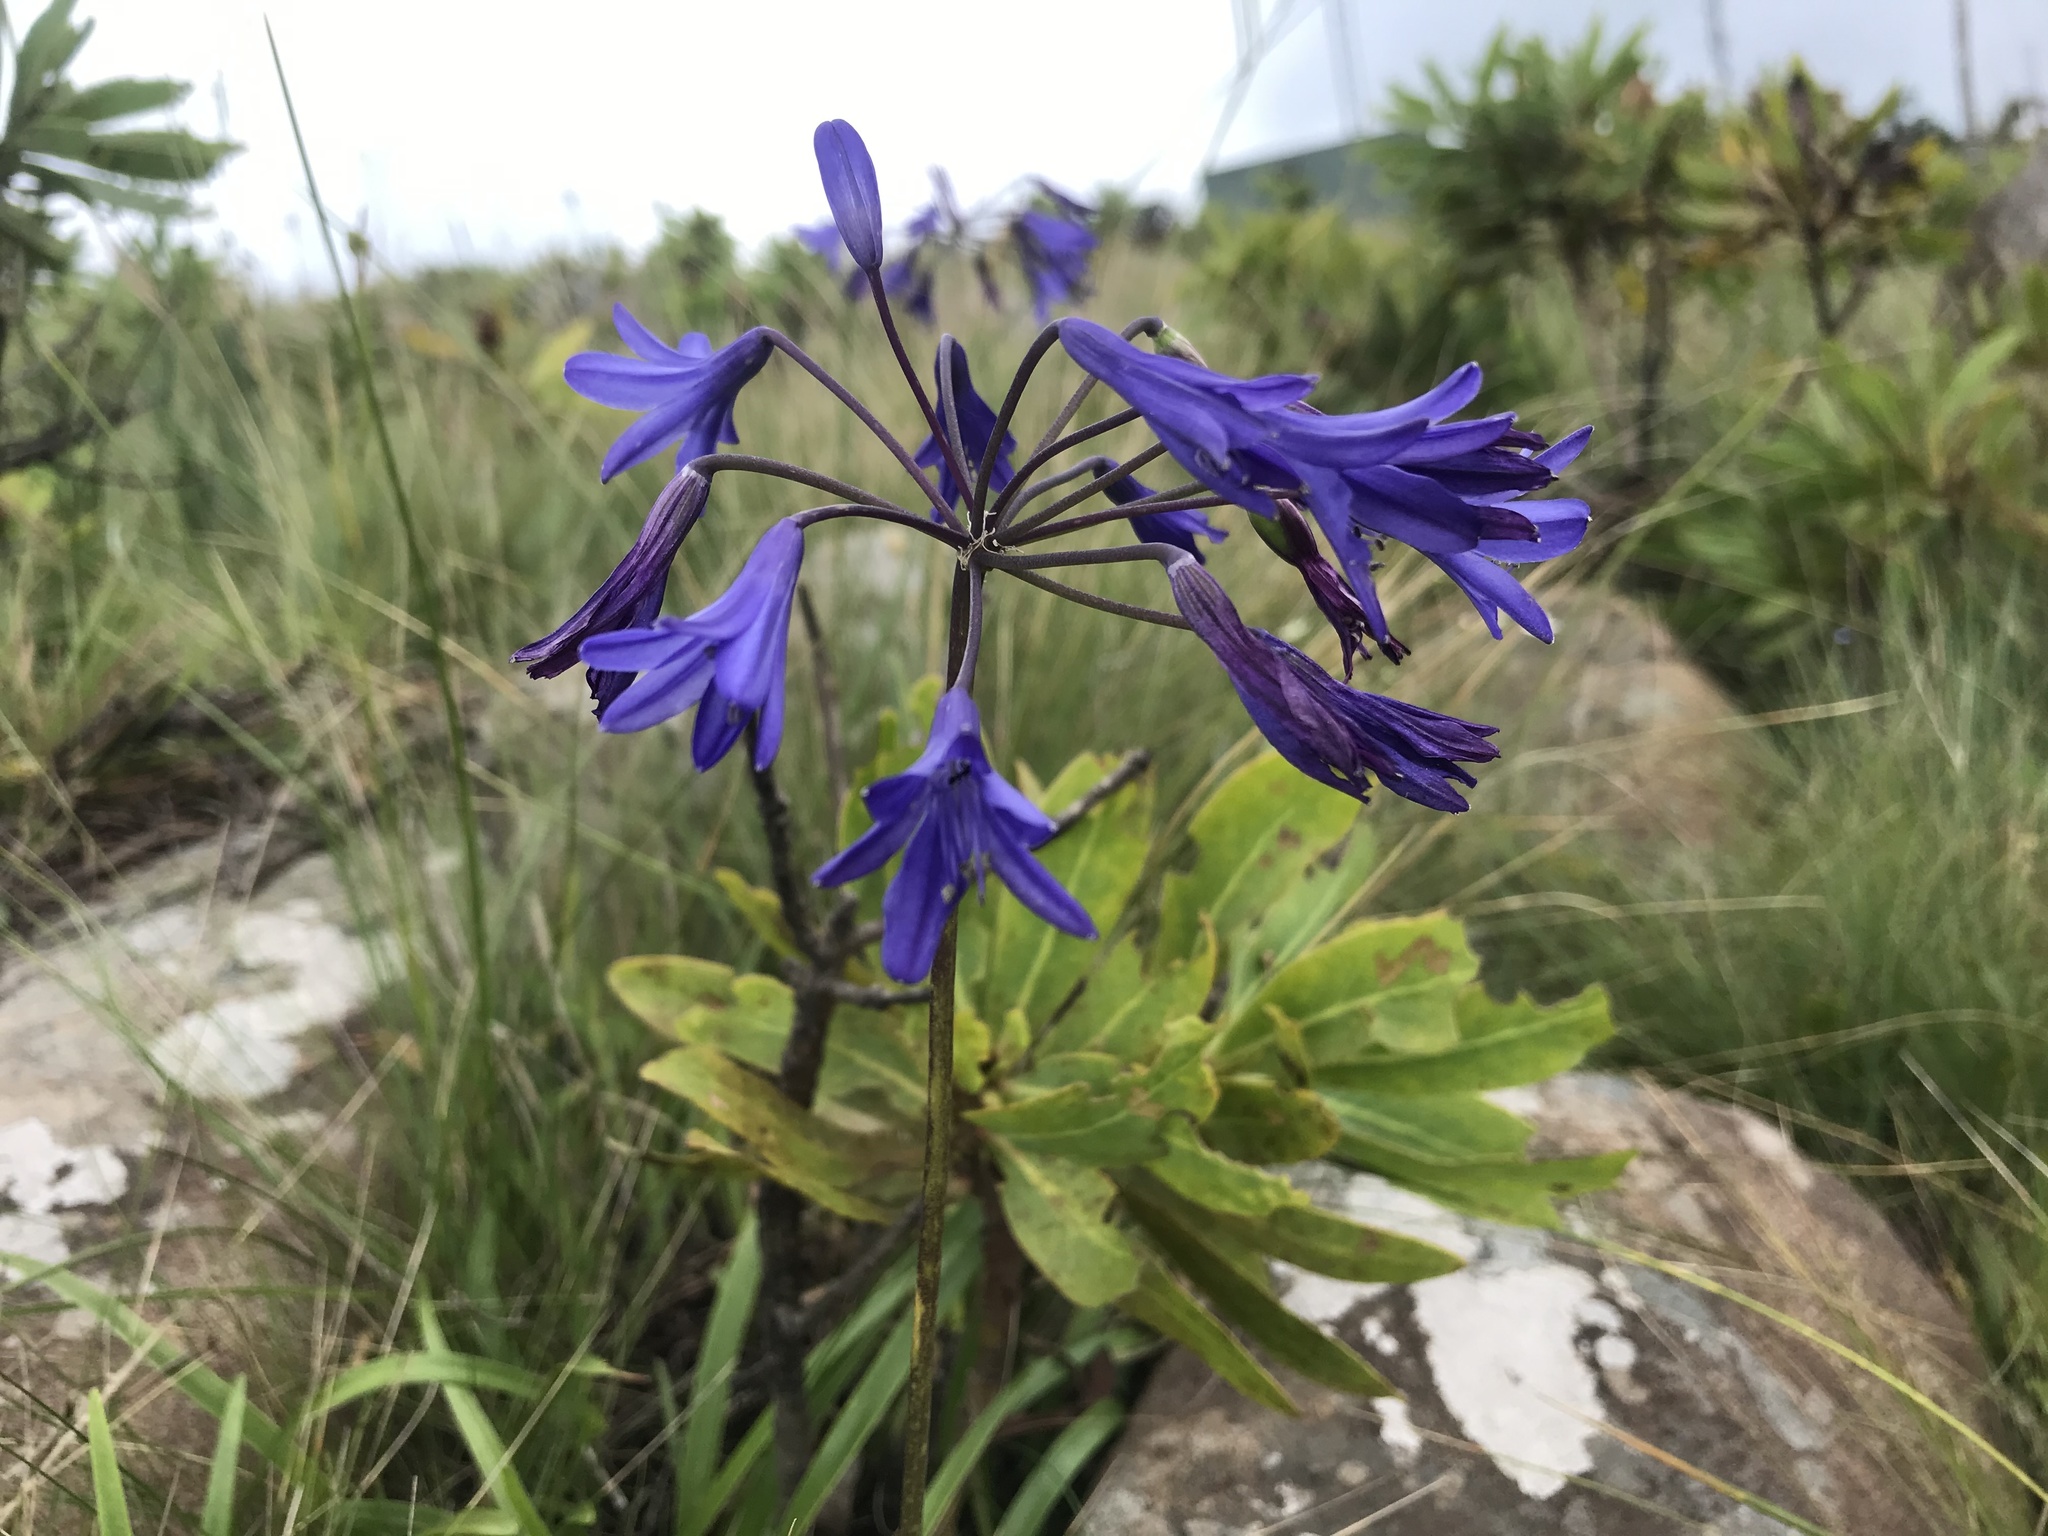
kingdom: Plantae
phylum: Tracheophyta
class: Liliopsida
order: Asparagales
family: Amaryllidaceae
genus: Agapanthus
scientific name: Agapanthus campanulatus
